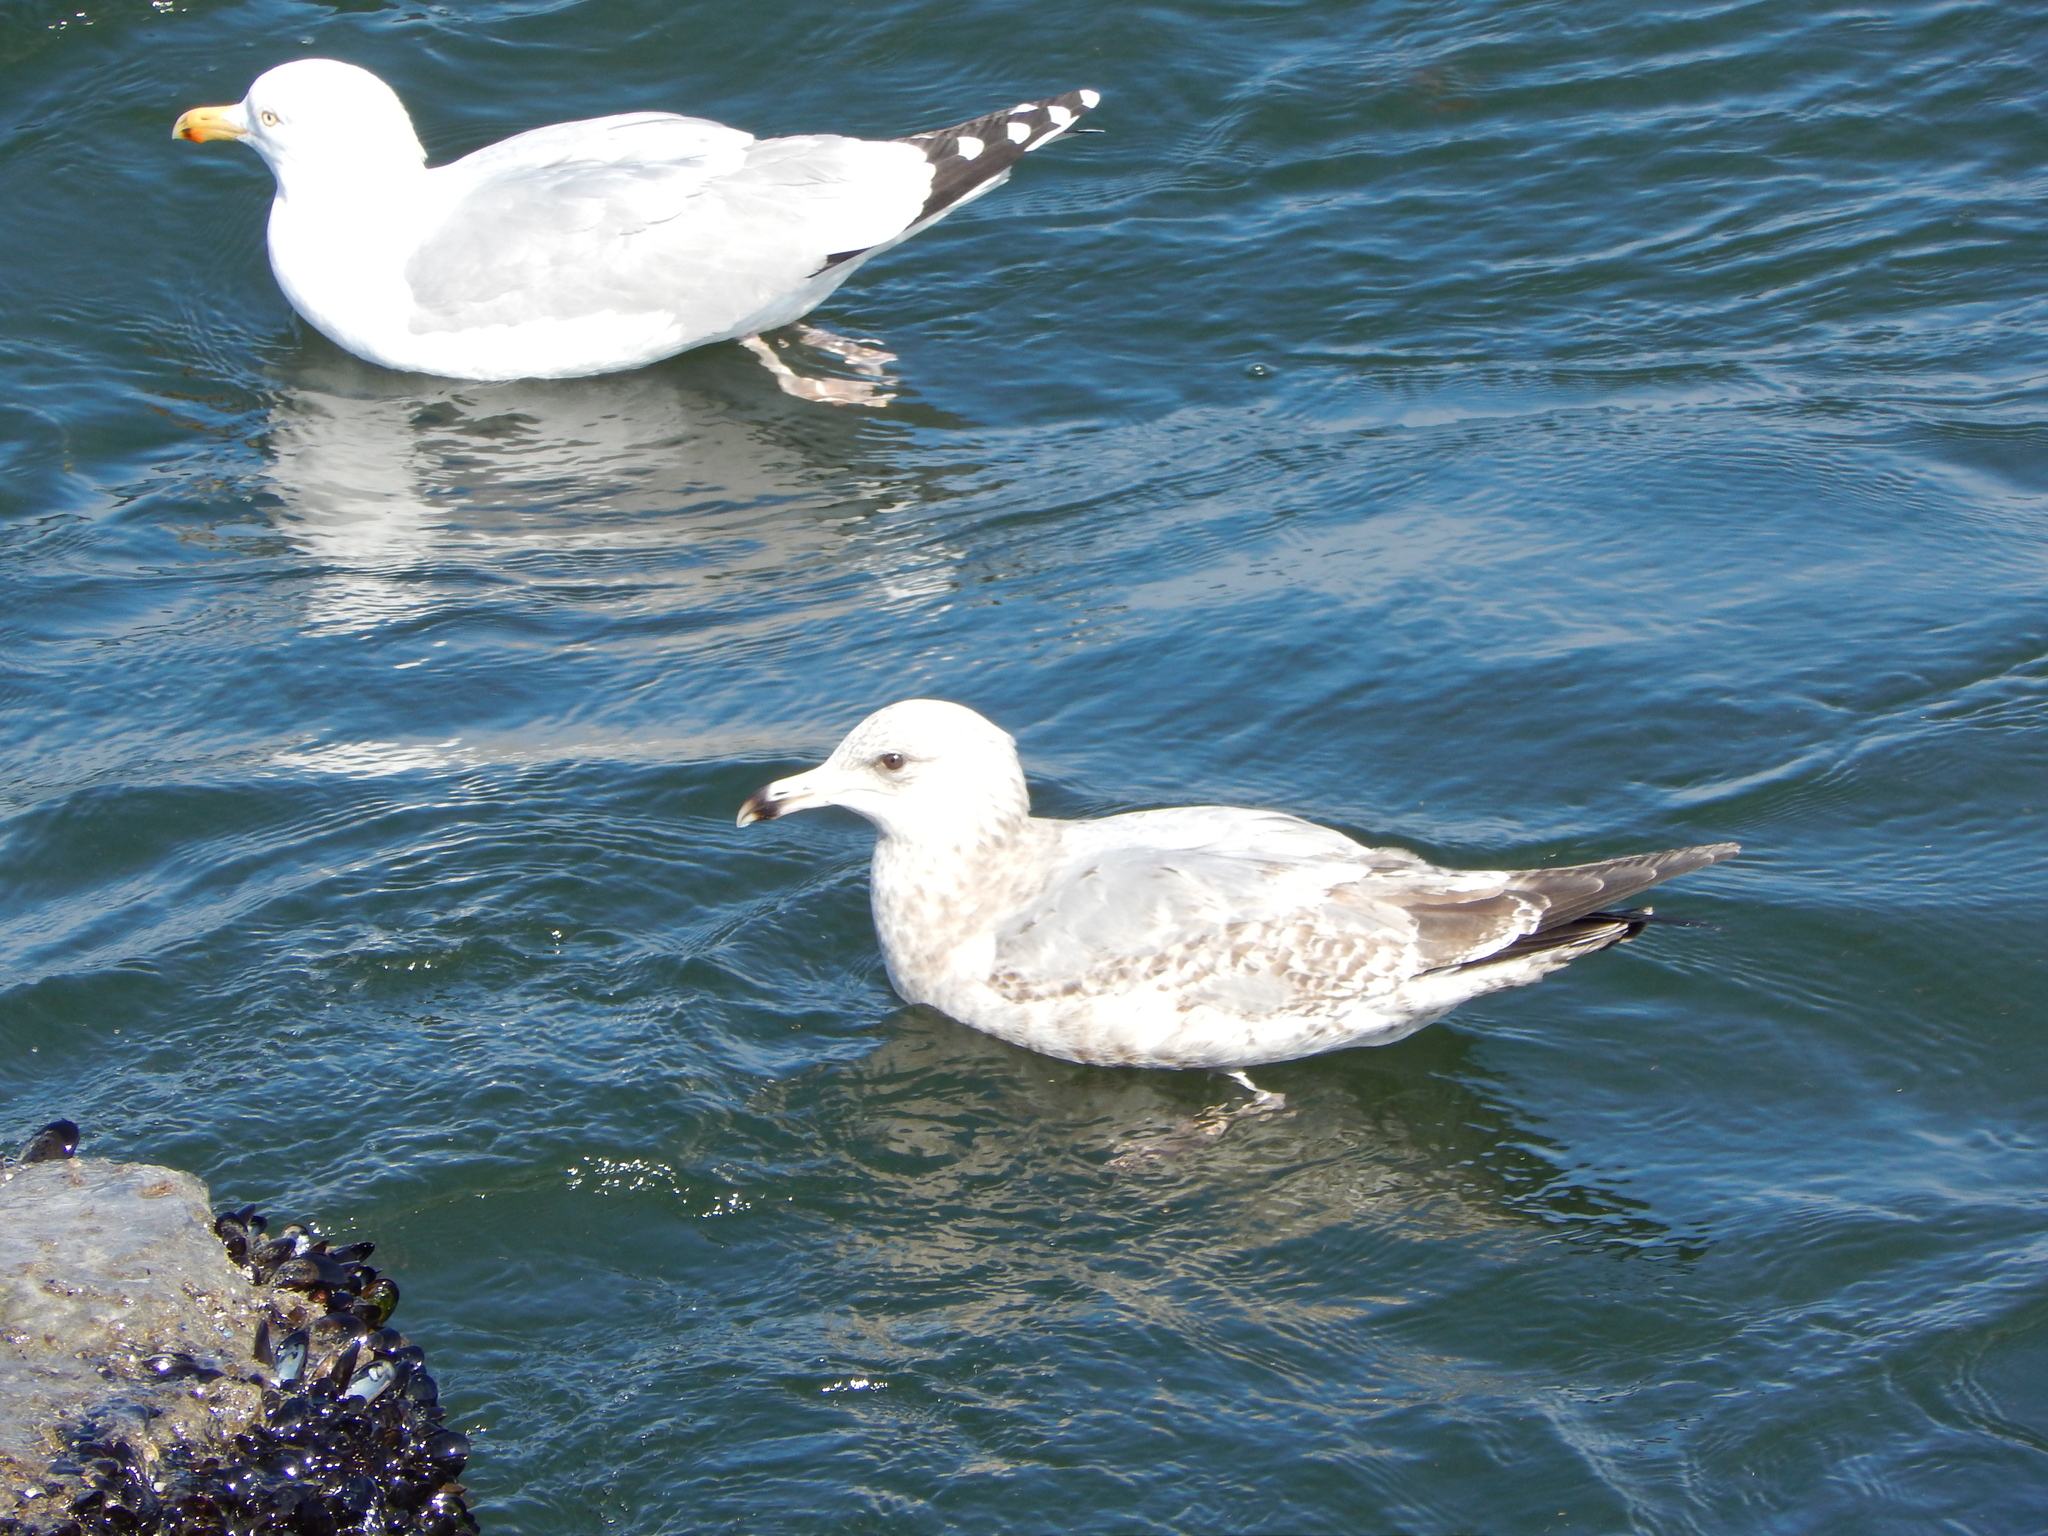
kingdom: Animalia
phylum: Chordata
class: Aves
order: Charadriiformes
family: Laridae
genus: Larus
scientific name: Larus delawarensis
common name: Ring-billed gull
